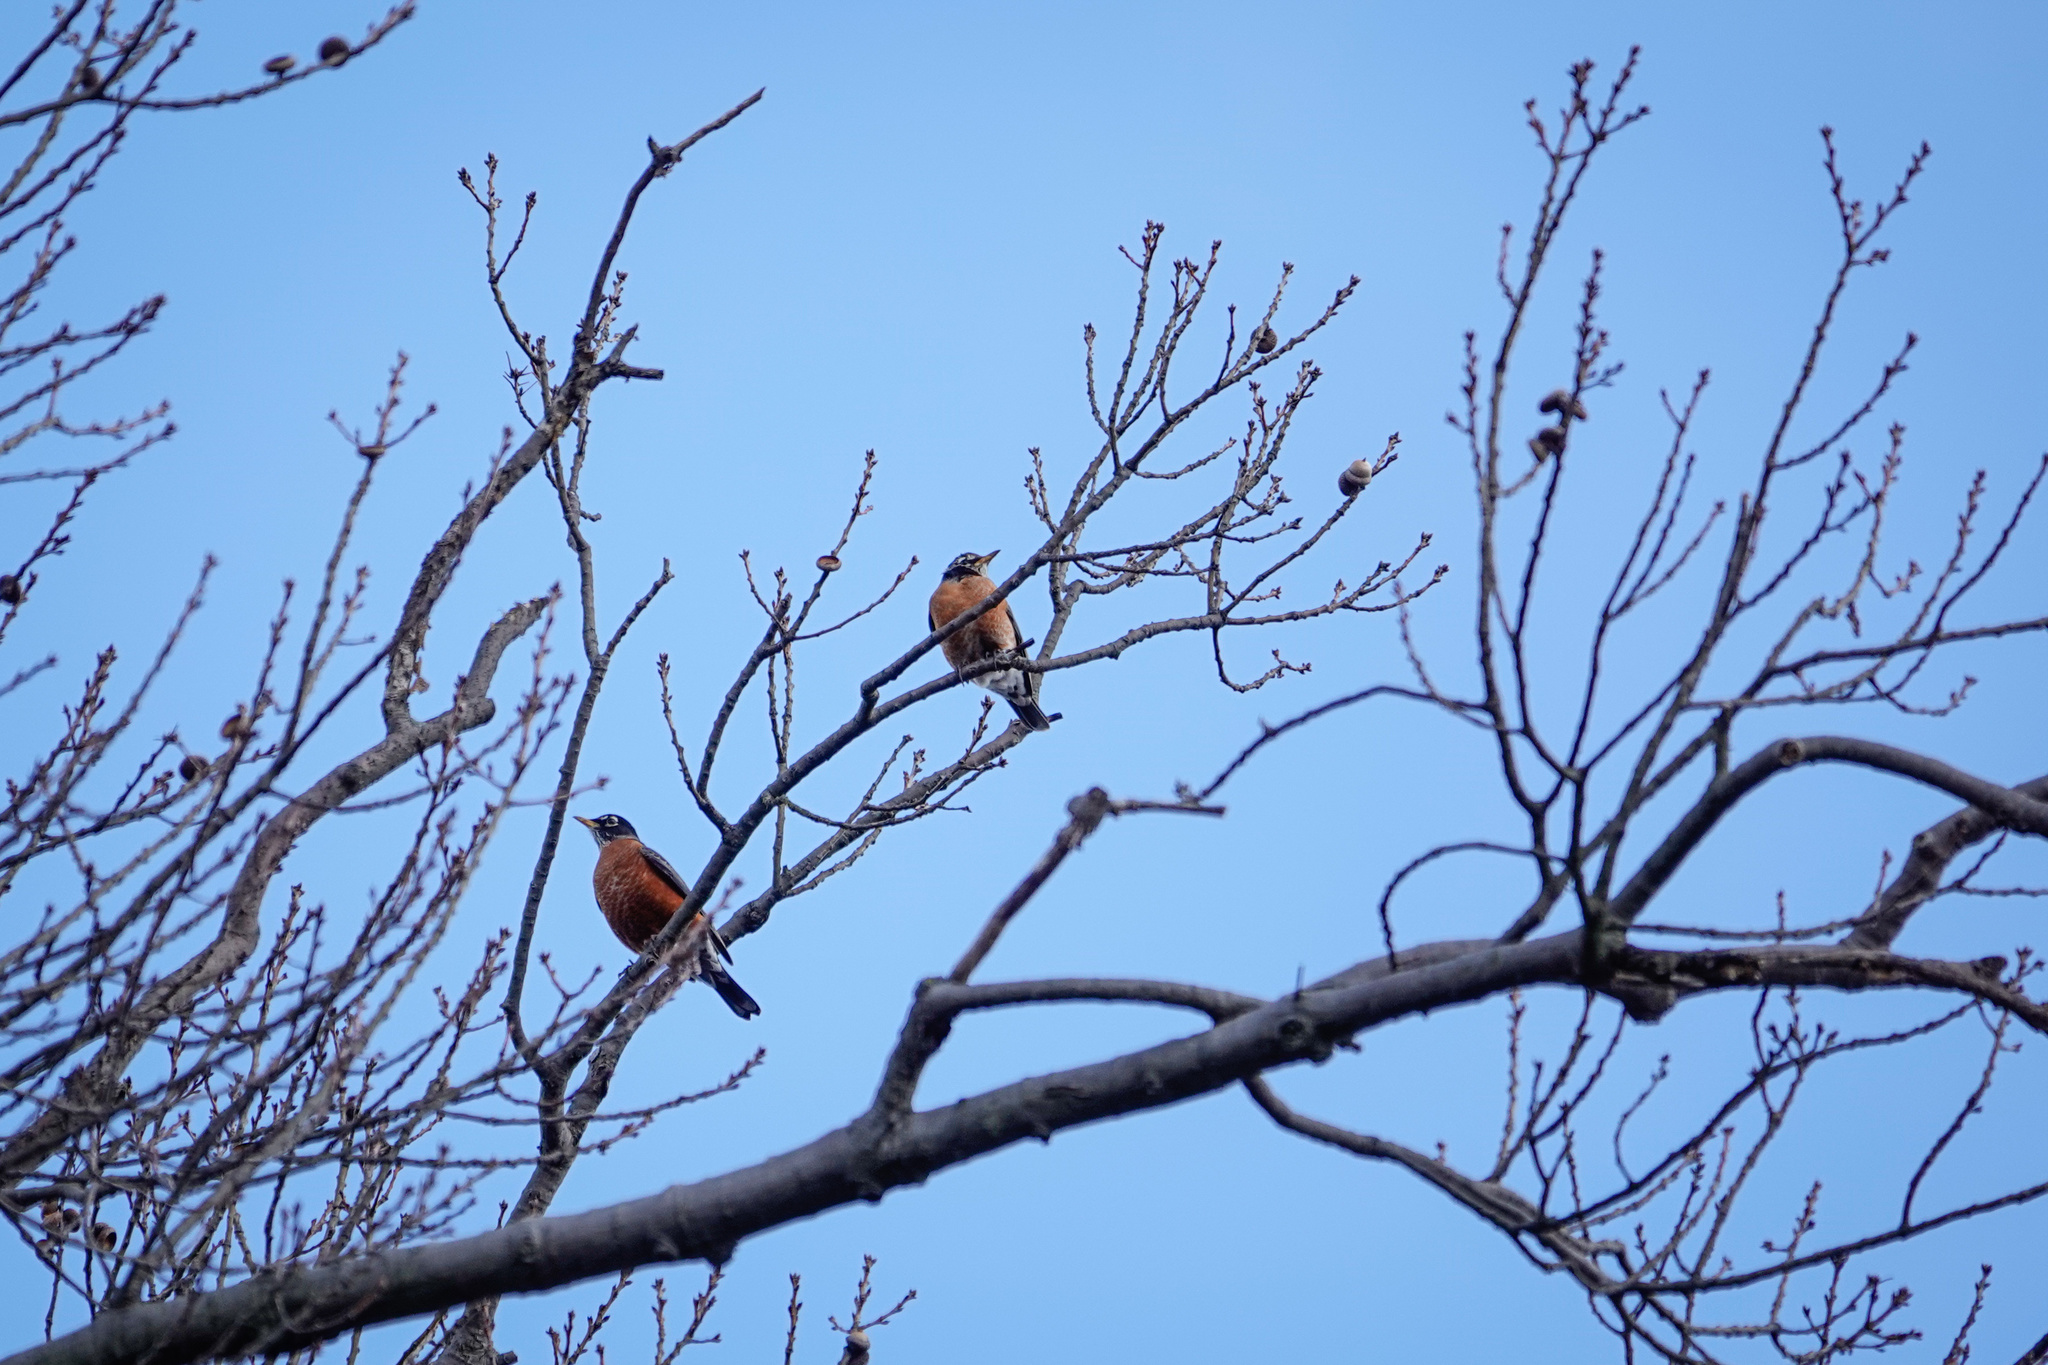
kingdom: Animalia
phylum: Chordata
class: Aves
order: Passeriformes
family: Turdidae
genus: Turdus
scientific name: Turdus migratorius
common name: American robin
